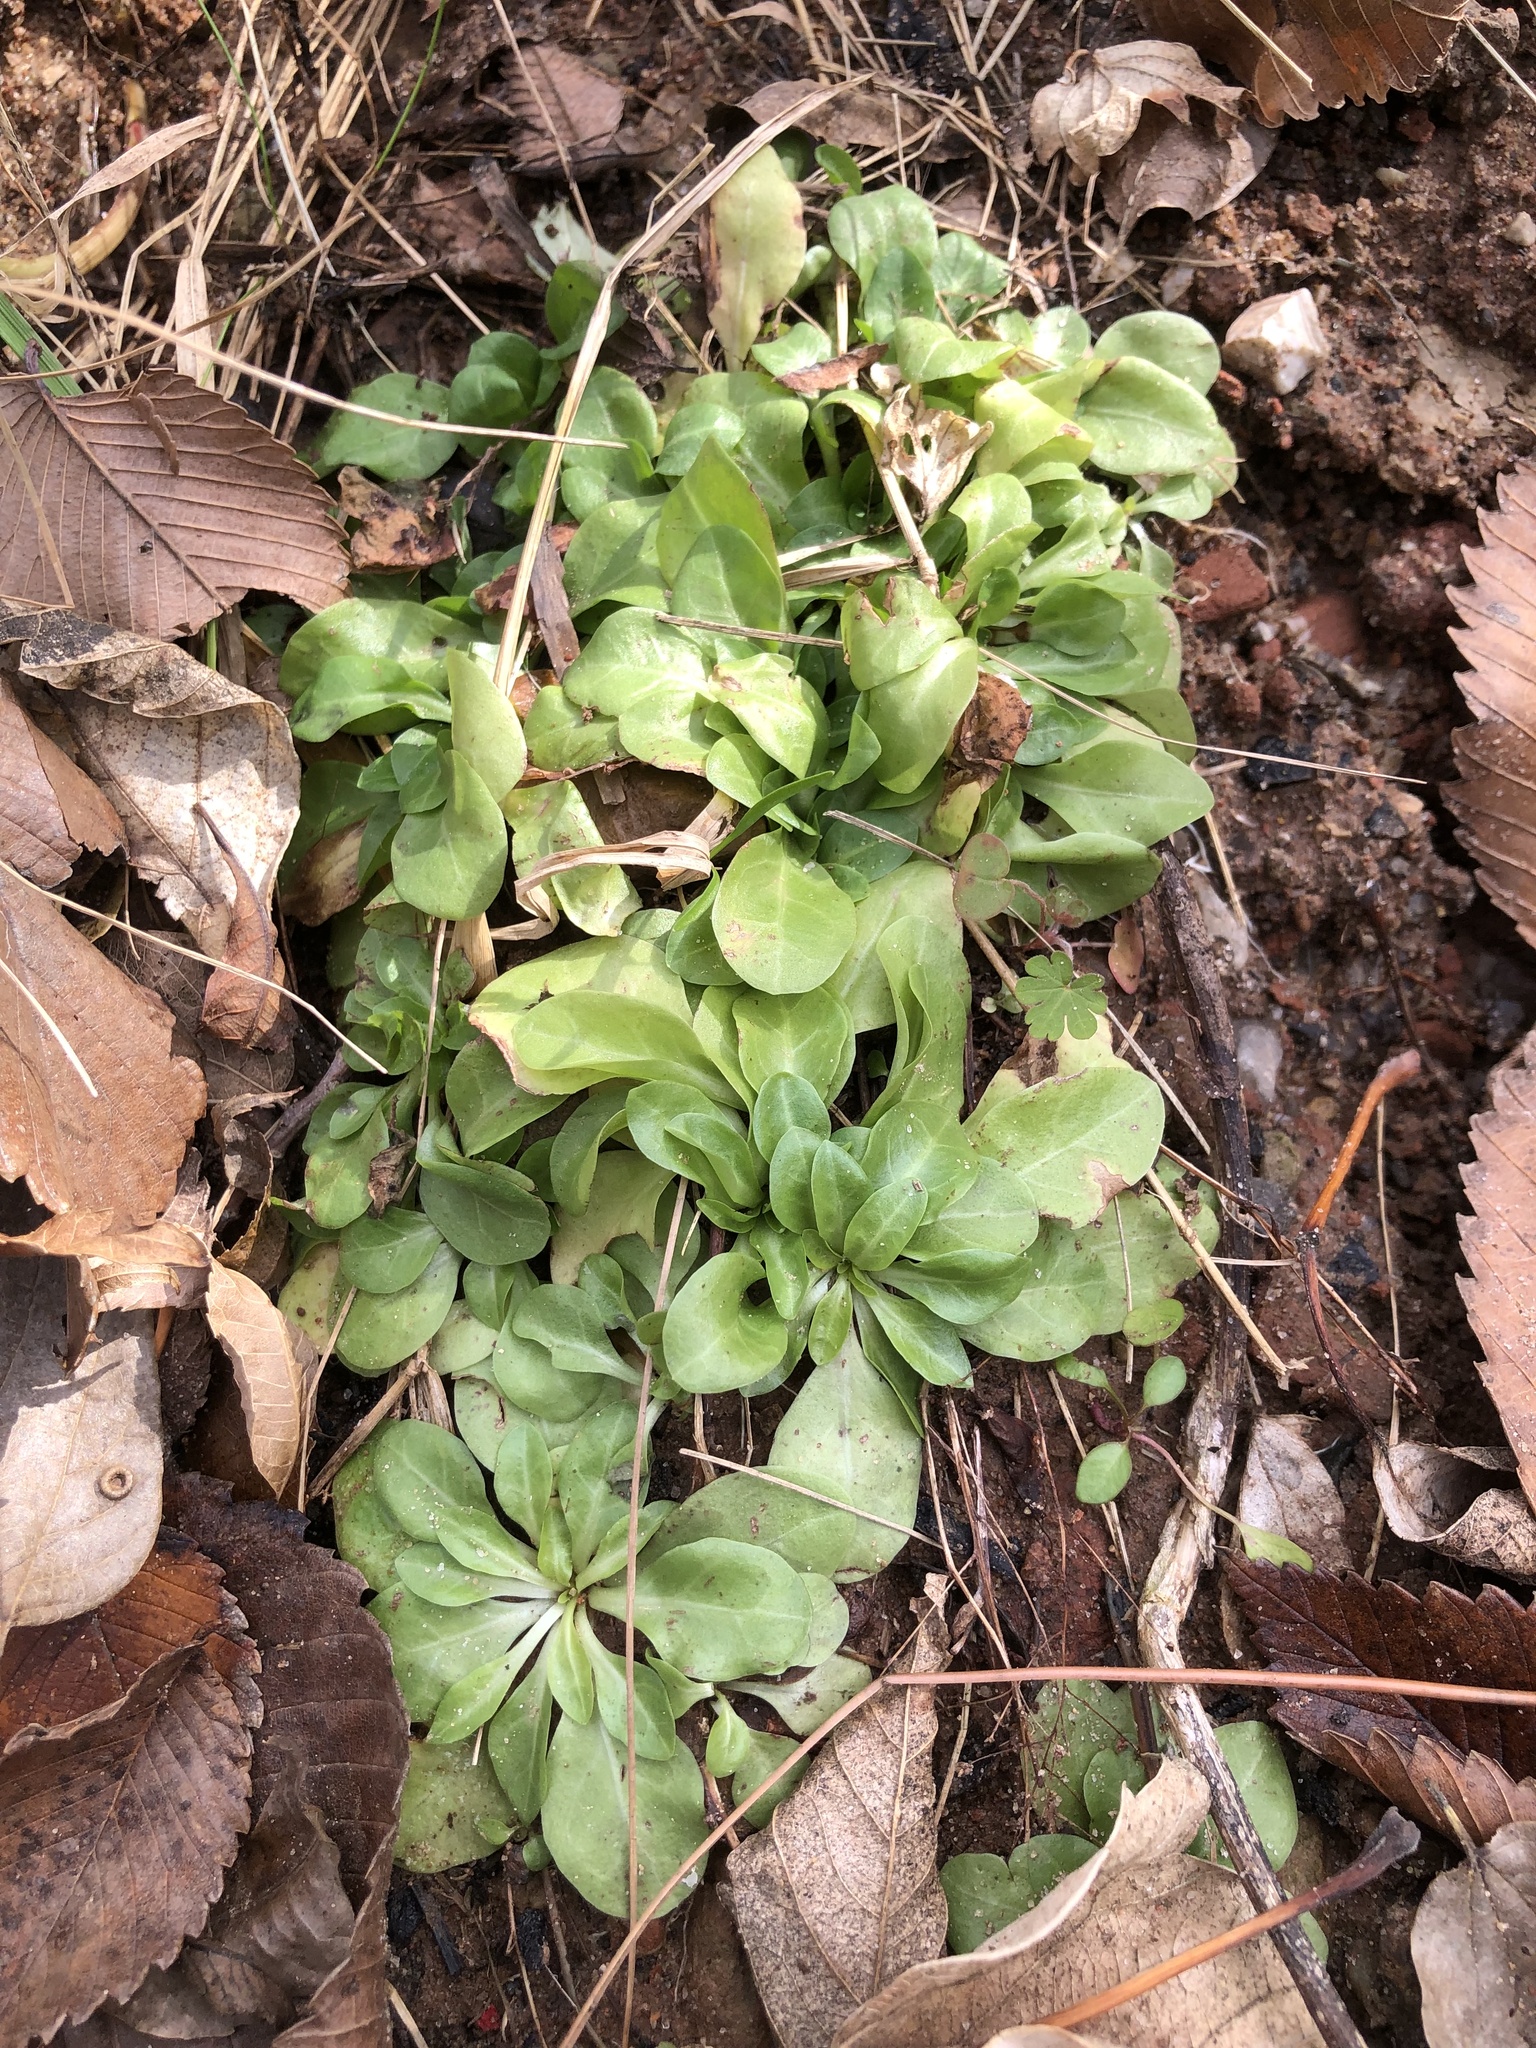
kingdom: Plantae
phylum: Tracheophyta
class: Magnoliopsida
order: Ericales
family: Primulaceae
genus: Samolus
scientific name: Samolus parviflorus
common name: False water pimpernel
